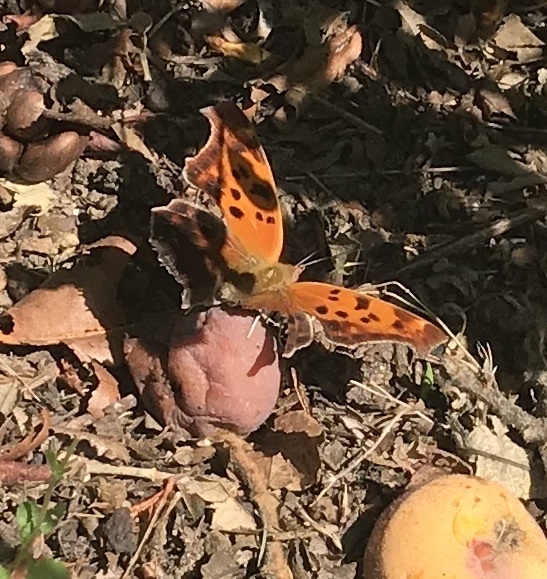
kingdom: Animalia
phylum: Arthropoda
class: Insecta
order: Lepidoptera
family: Nymphalidae
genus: Polygonia
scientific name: Polygonia interrogationis
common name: Question mark
